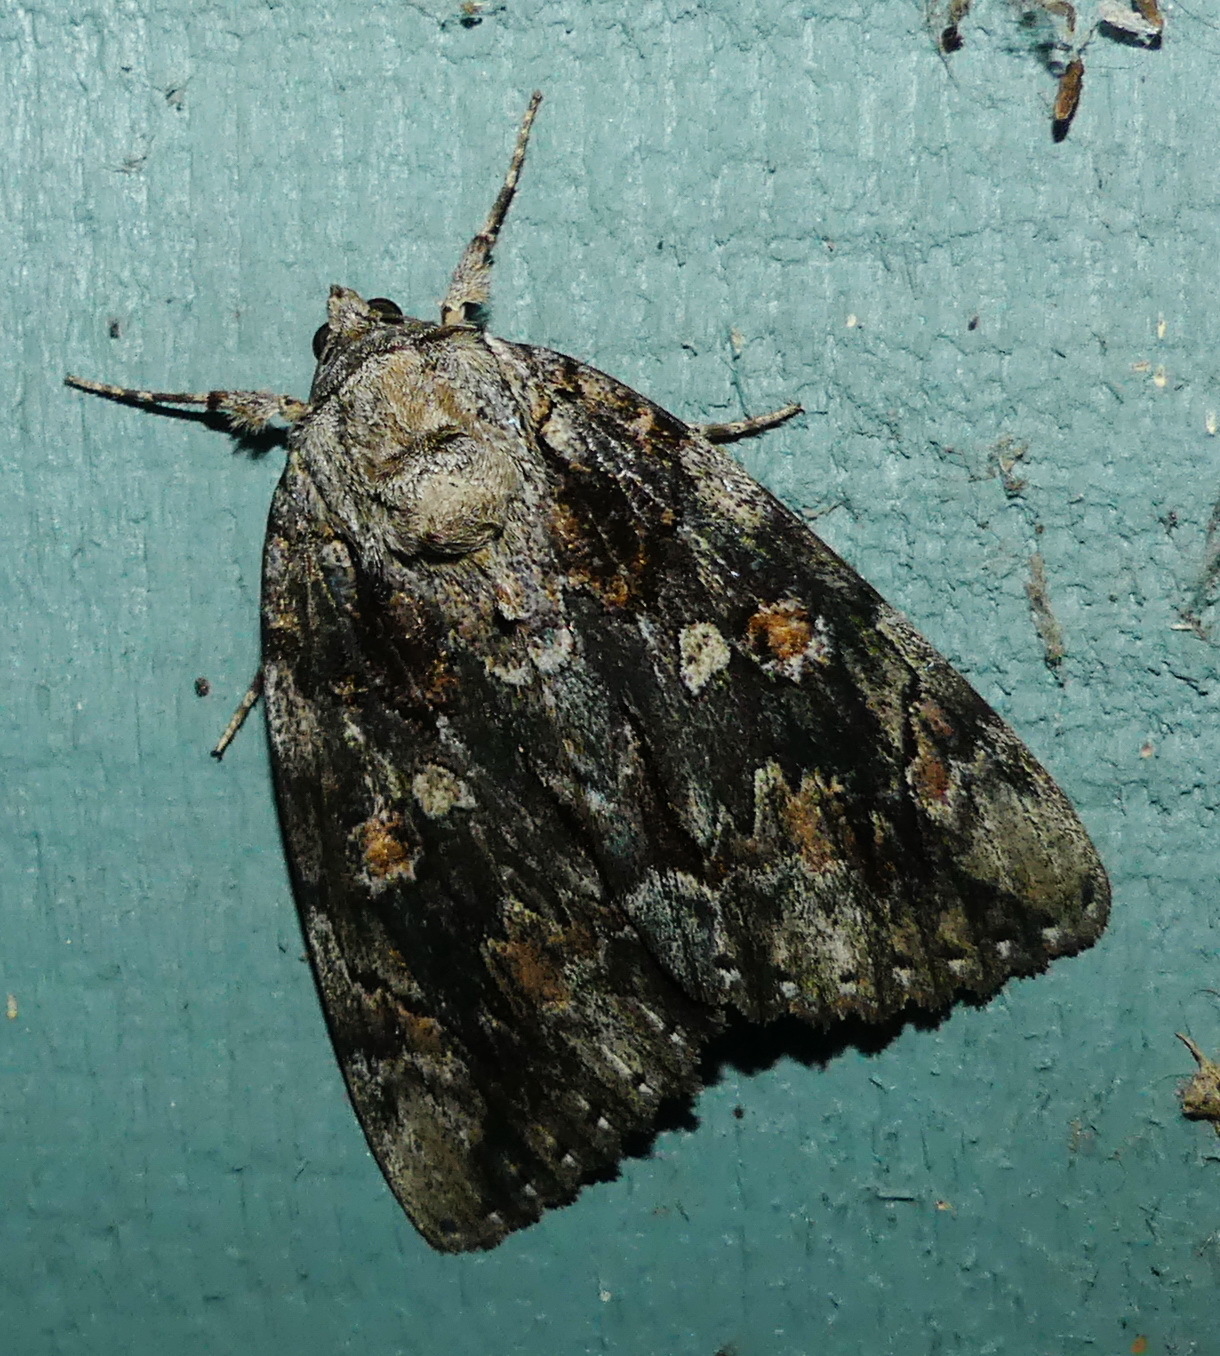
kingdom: Animalia
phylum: Arthropoda
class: Insecta
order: Lepidoptera
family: Erebidae
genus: Catocala
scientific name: Catocala neogama
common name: Bride underwing
